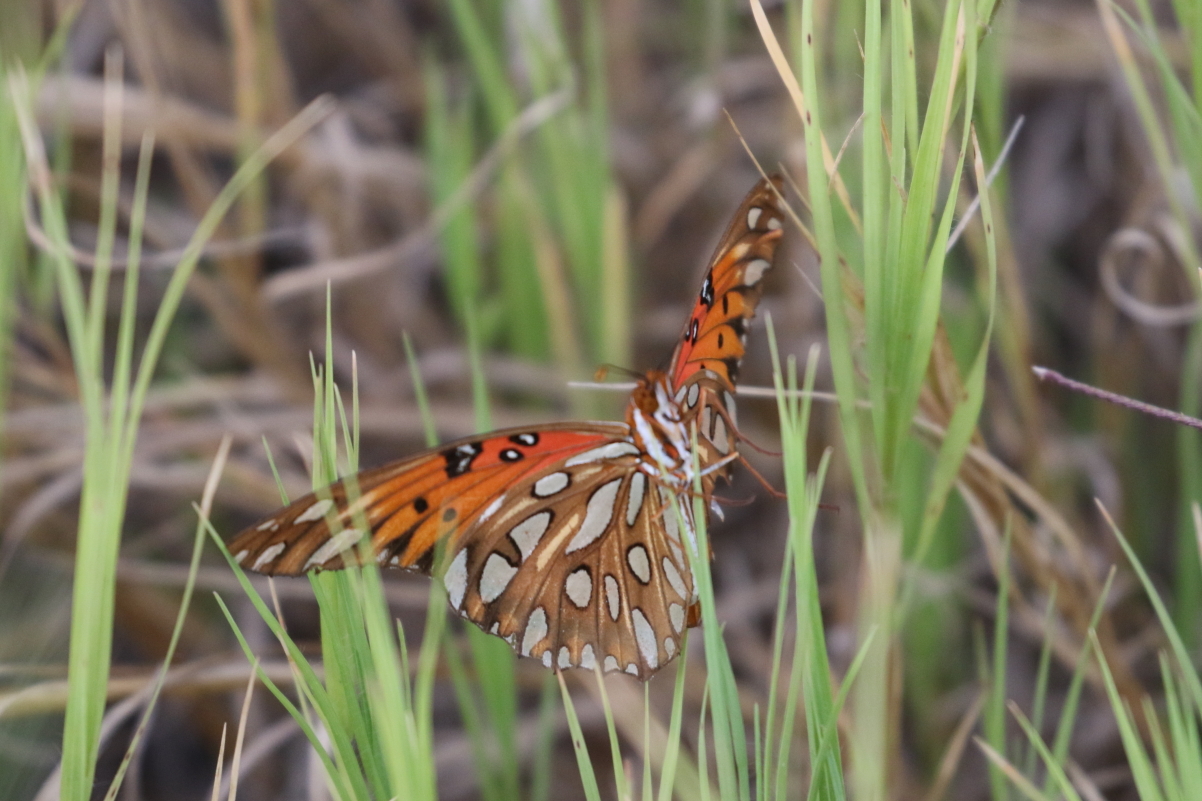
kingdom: Animalia
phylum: Arthropoda
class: Insecta
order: Lepidoptera
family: Nymphalidae
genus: Dione
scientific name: Dione vanillae
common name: Gulf fritillary
